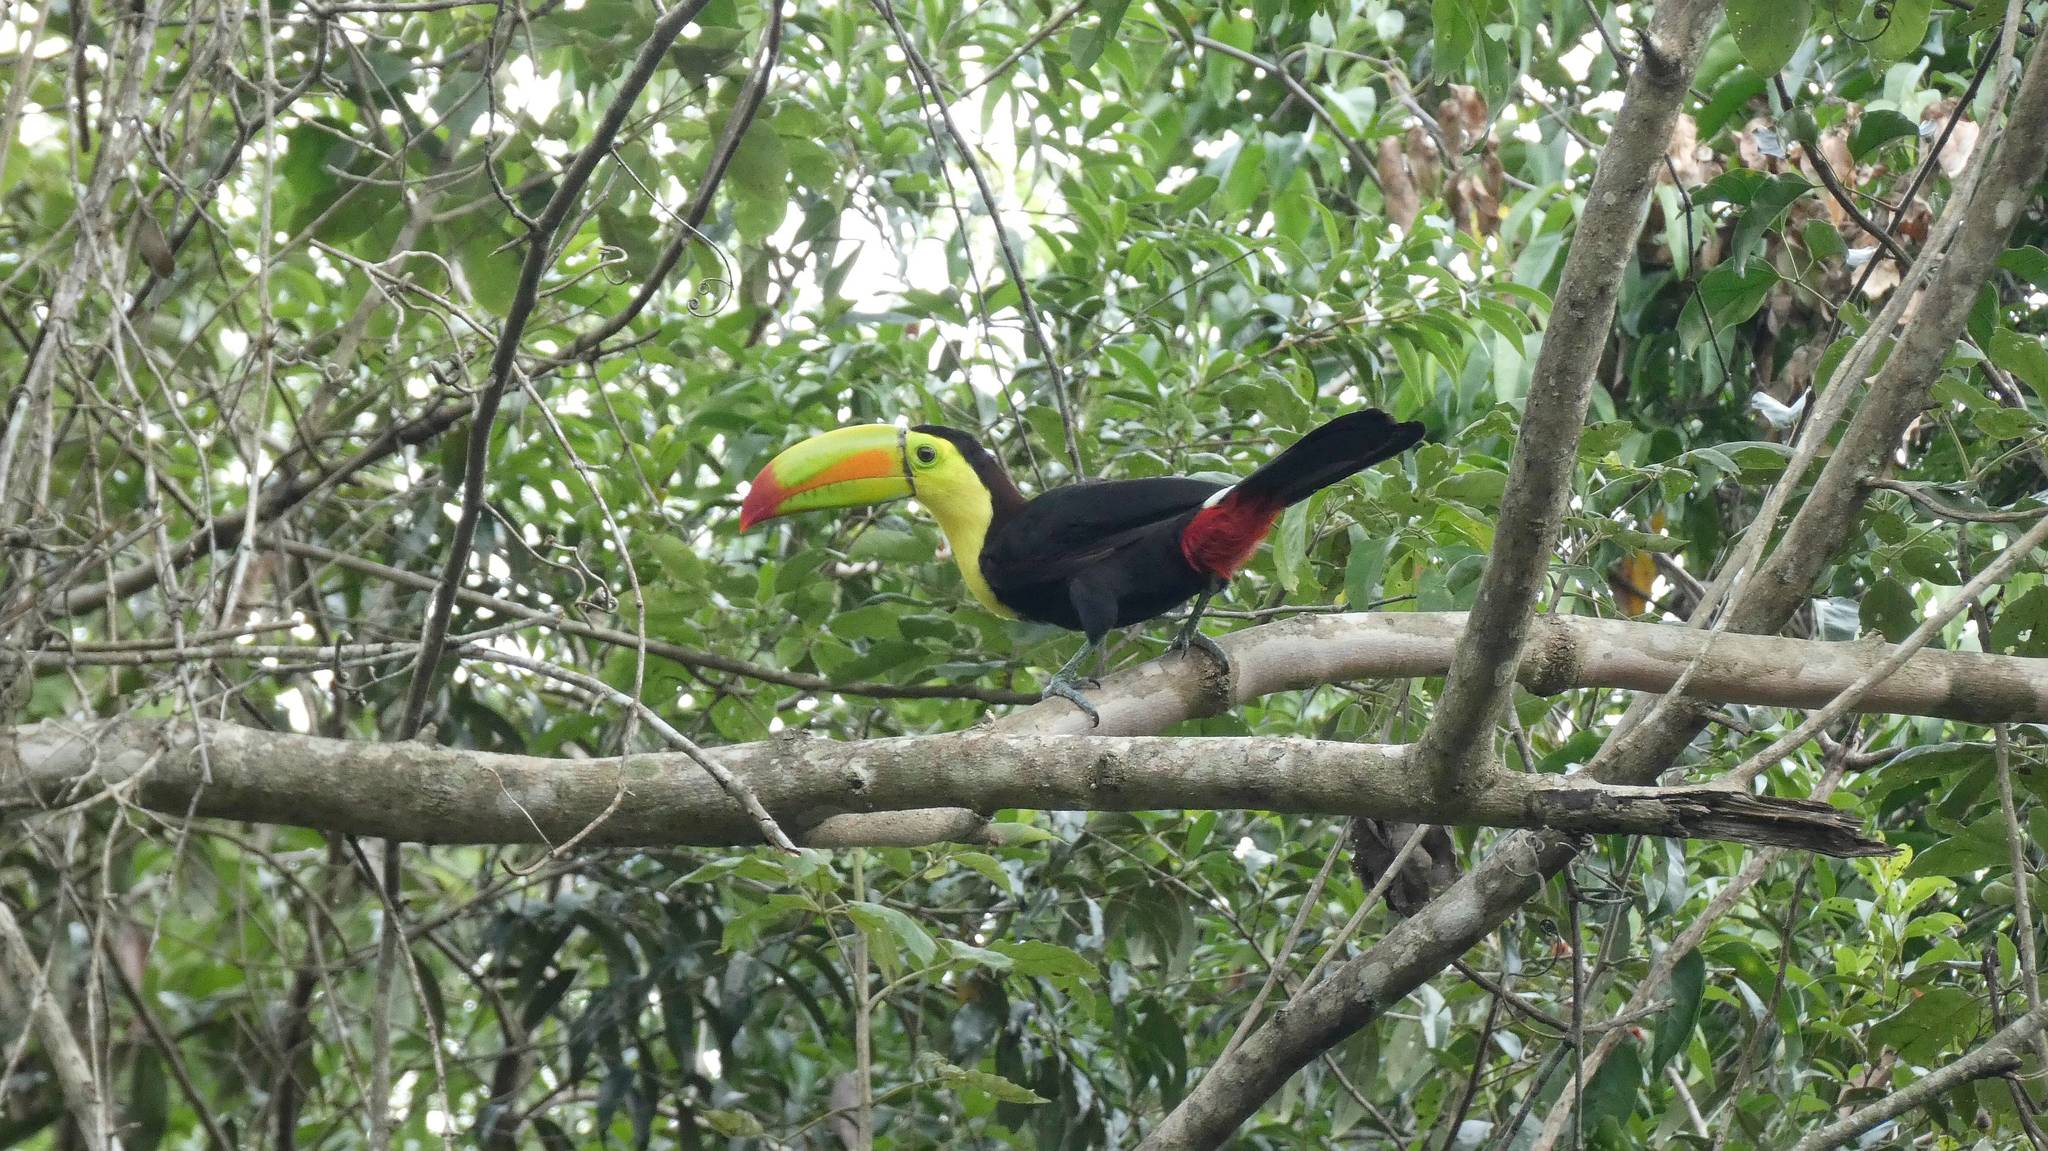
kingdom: Animalia
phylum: Chordata
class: Aves
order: Piciformes
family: Ramphastidae
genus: Ramphastos
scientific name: Ramphastos sulfuratus
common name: Keel-billed toucan
